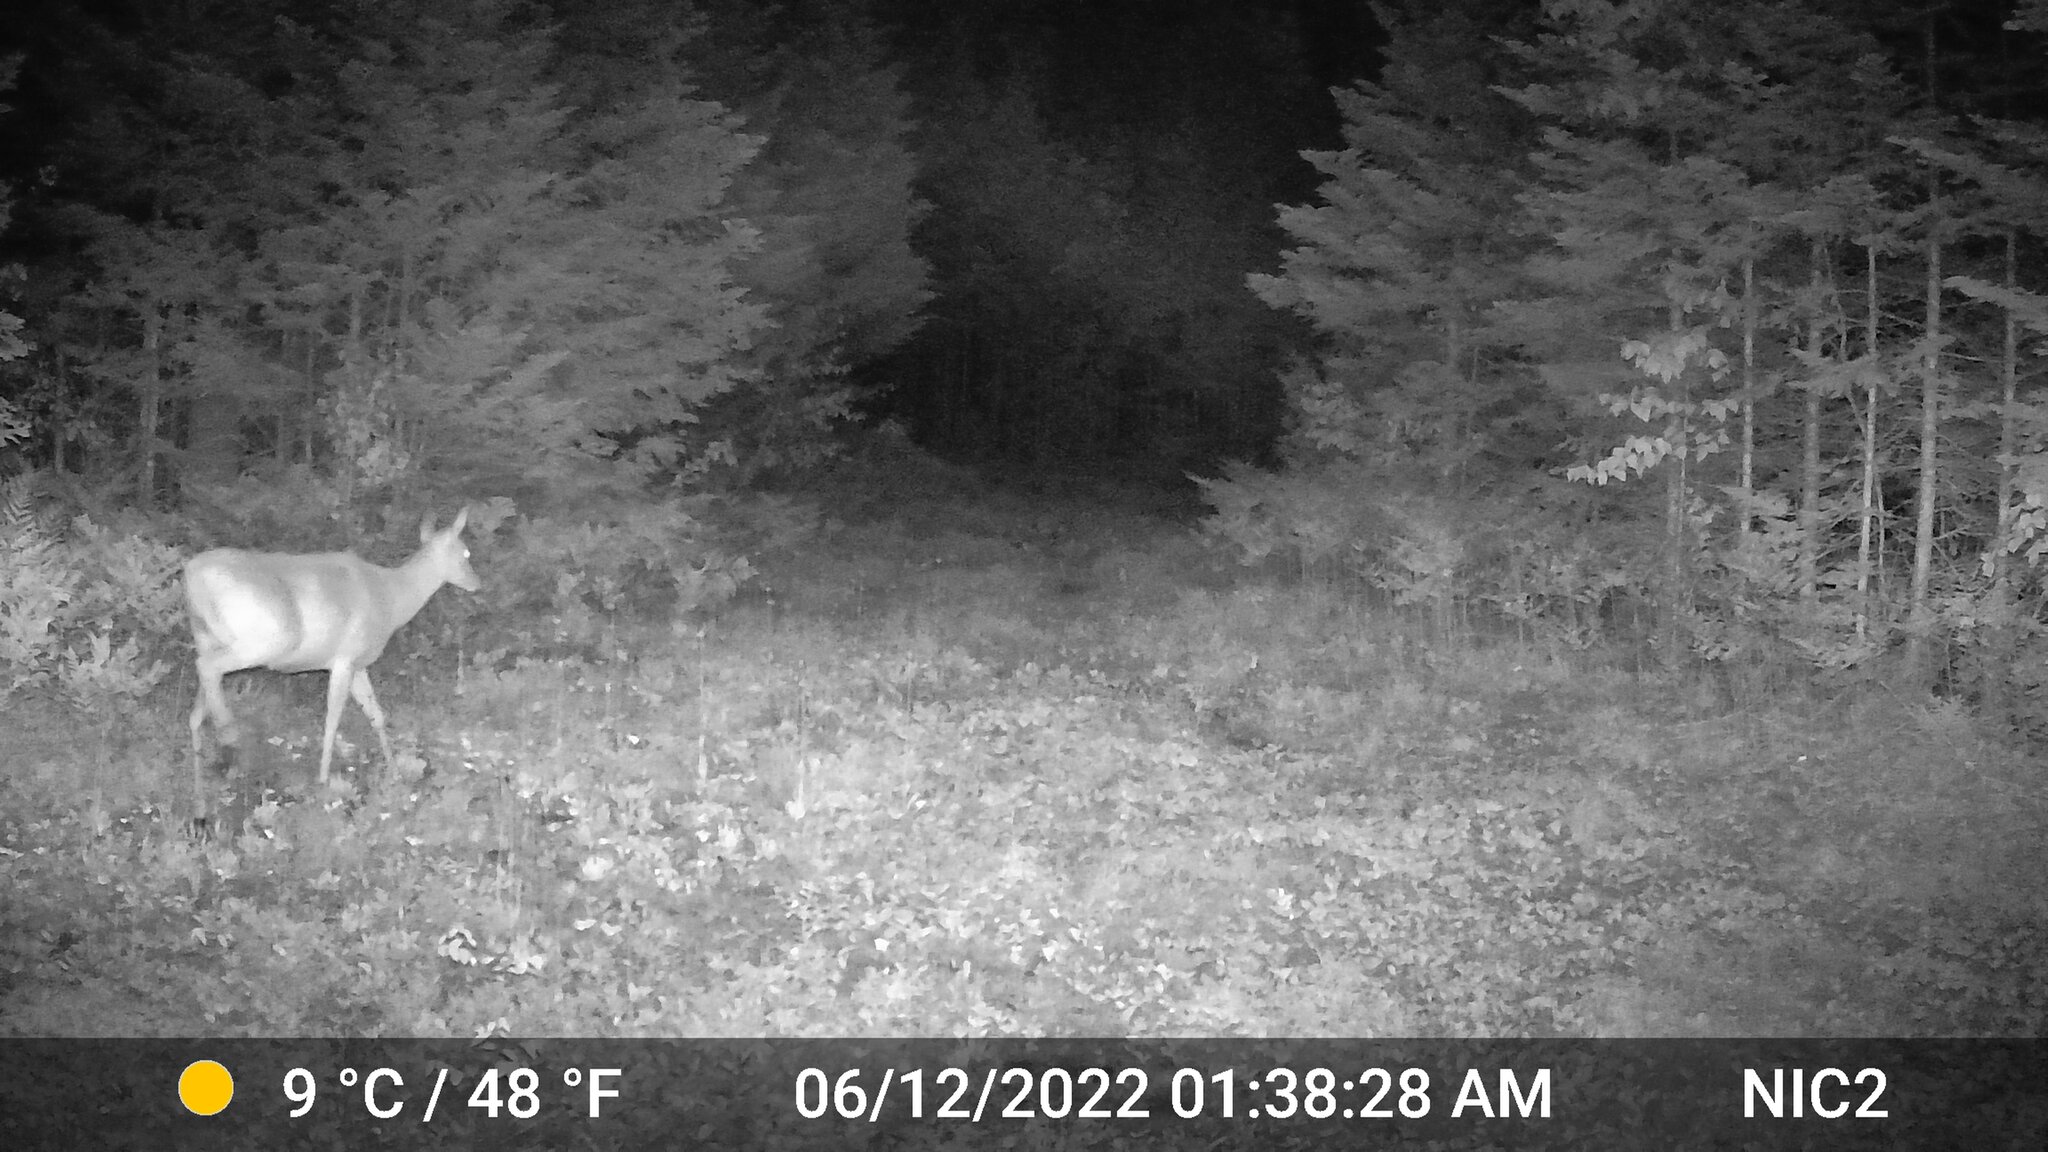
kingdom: Animalia
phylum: Chordata
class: Mammalia
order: Artiodactyla
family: Cervidae
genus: Odocoileus
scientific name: Odocoileus virginianus
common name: White-tailed deer
